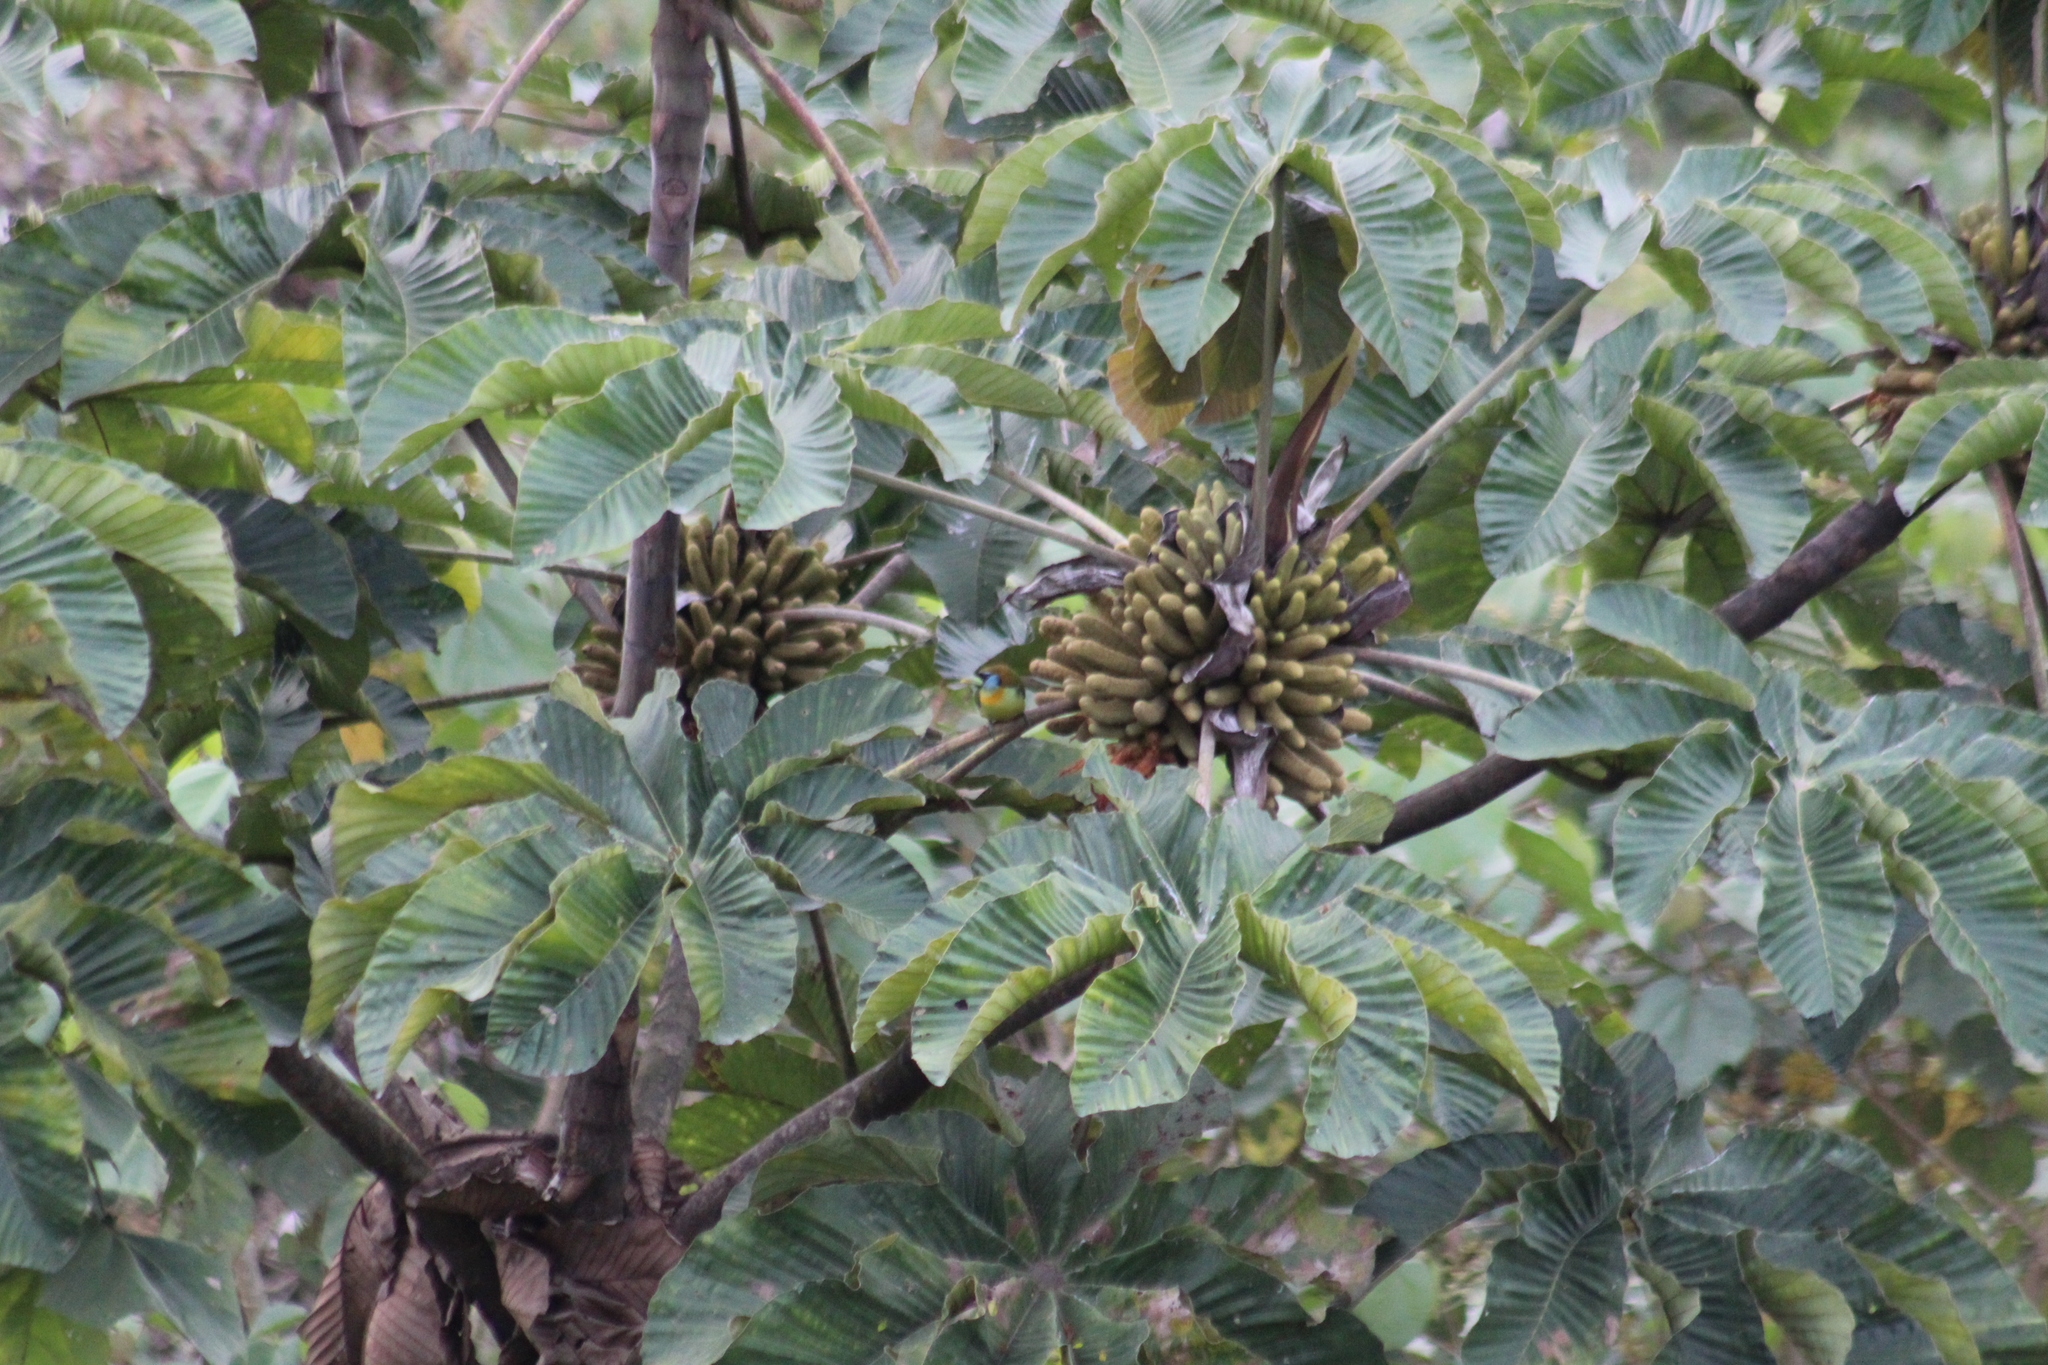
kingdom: Animalia
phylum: Chordata
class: Aves
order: Piciformes
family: Capitonidae
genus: Eubucco
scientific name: Eubucco bourcierii
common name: Red-headed barbet
